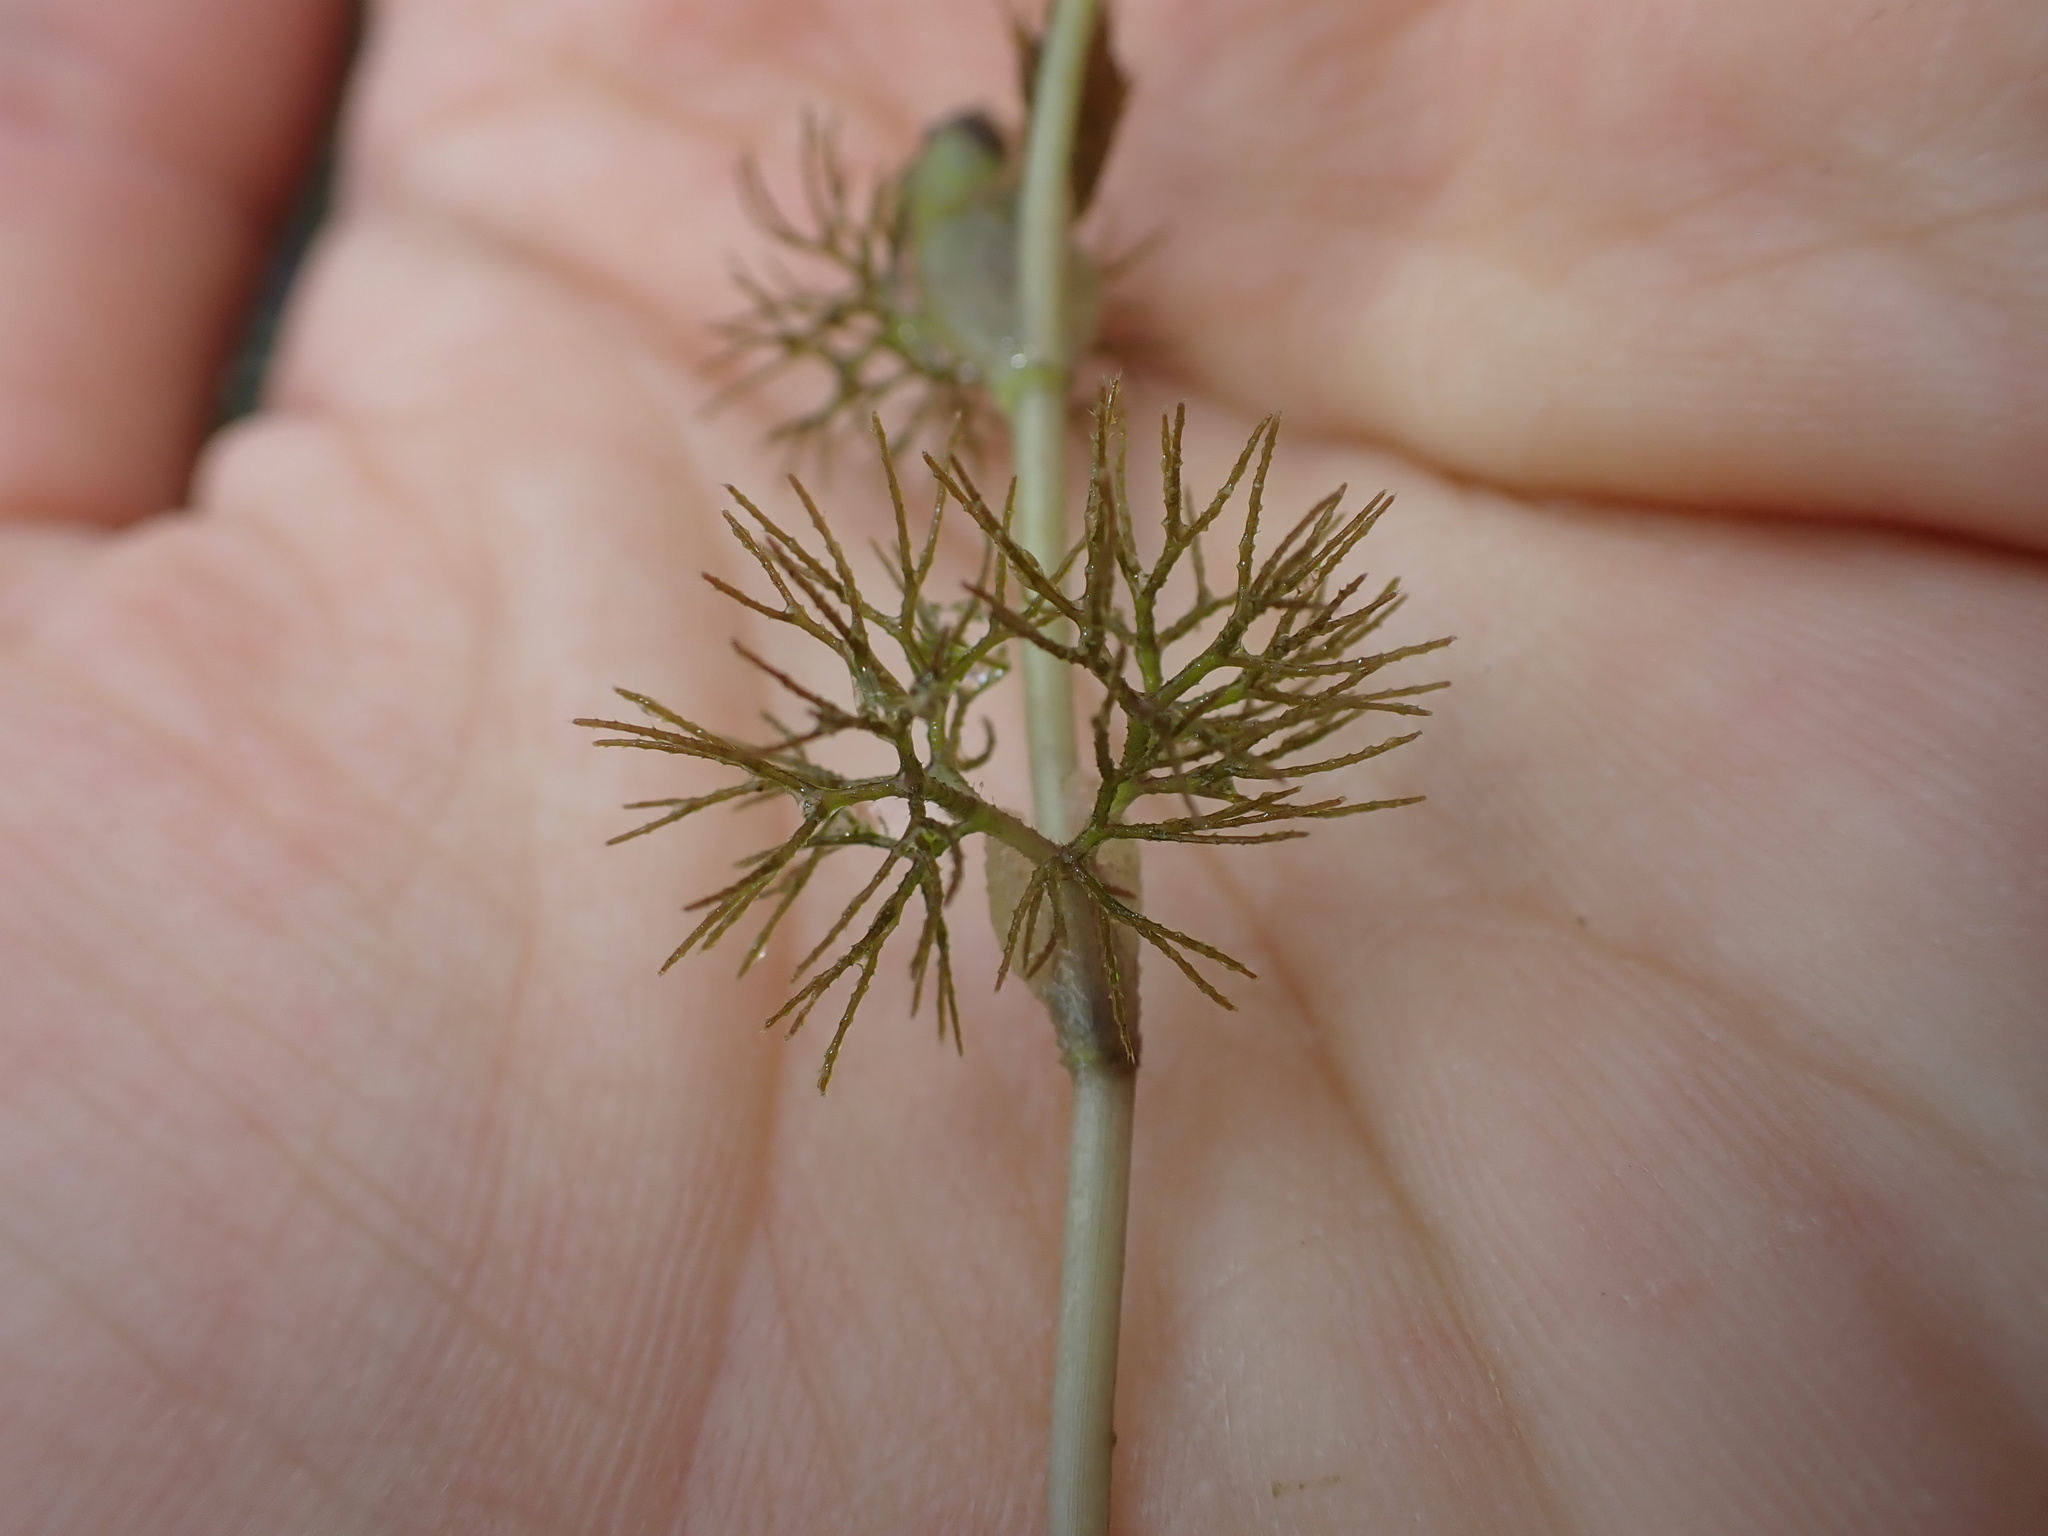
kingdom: Plantae
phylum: Tracheophyta
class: Magnoliopsida
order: Ranunculales
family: Ranunculaceae
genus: Ranunculus
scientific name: Ranunculus trichophyllus
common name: Thread-leaved water-crowfoot
